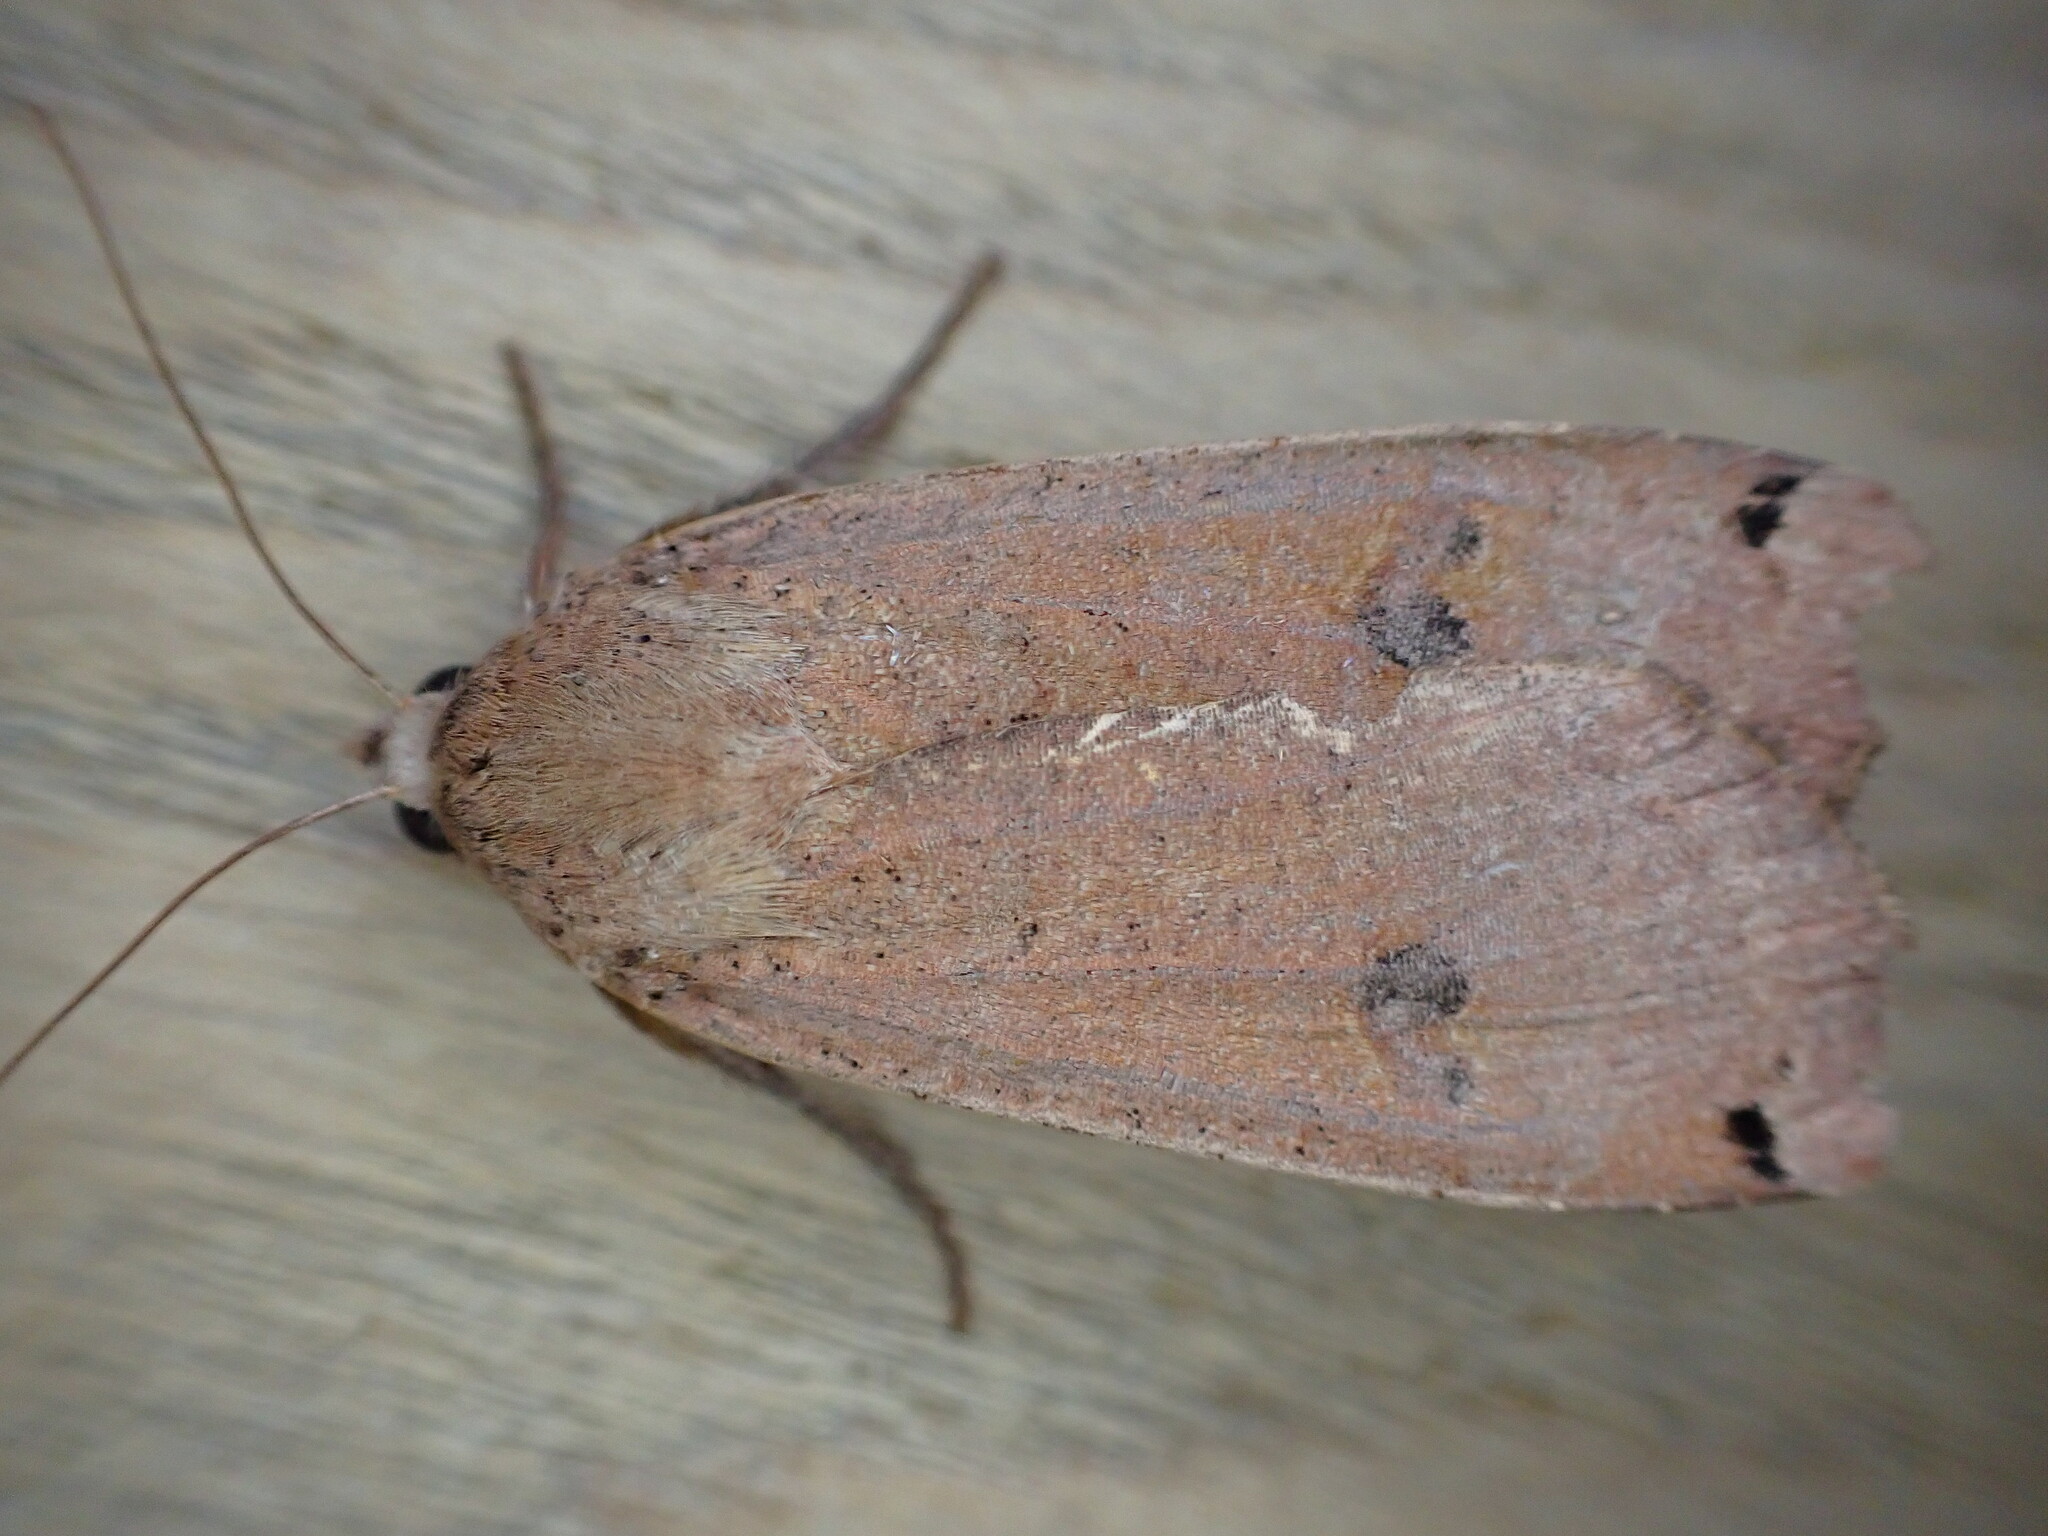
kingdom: Animalia
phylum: Arthropoda
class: Insecta
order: Lepidoptera
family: Noctuidae
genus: Noctua
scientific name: Noctua pronuba
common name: Large yellow underwing
